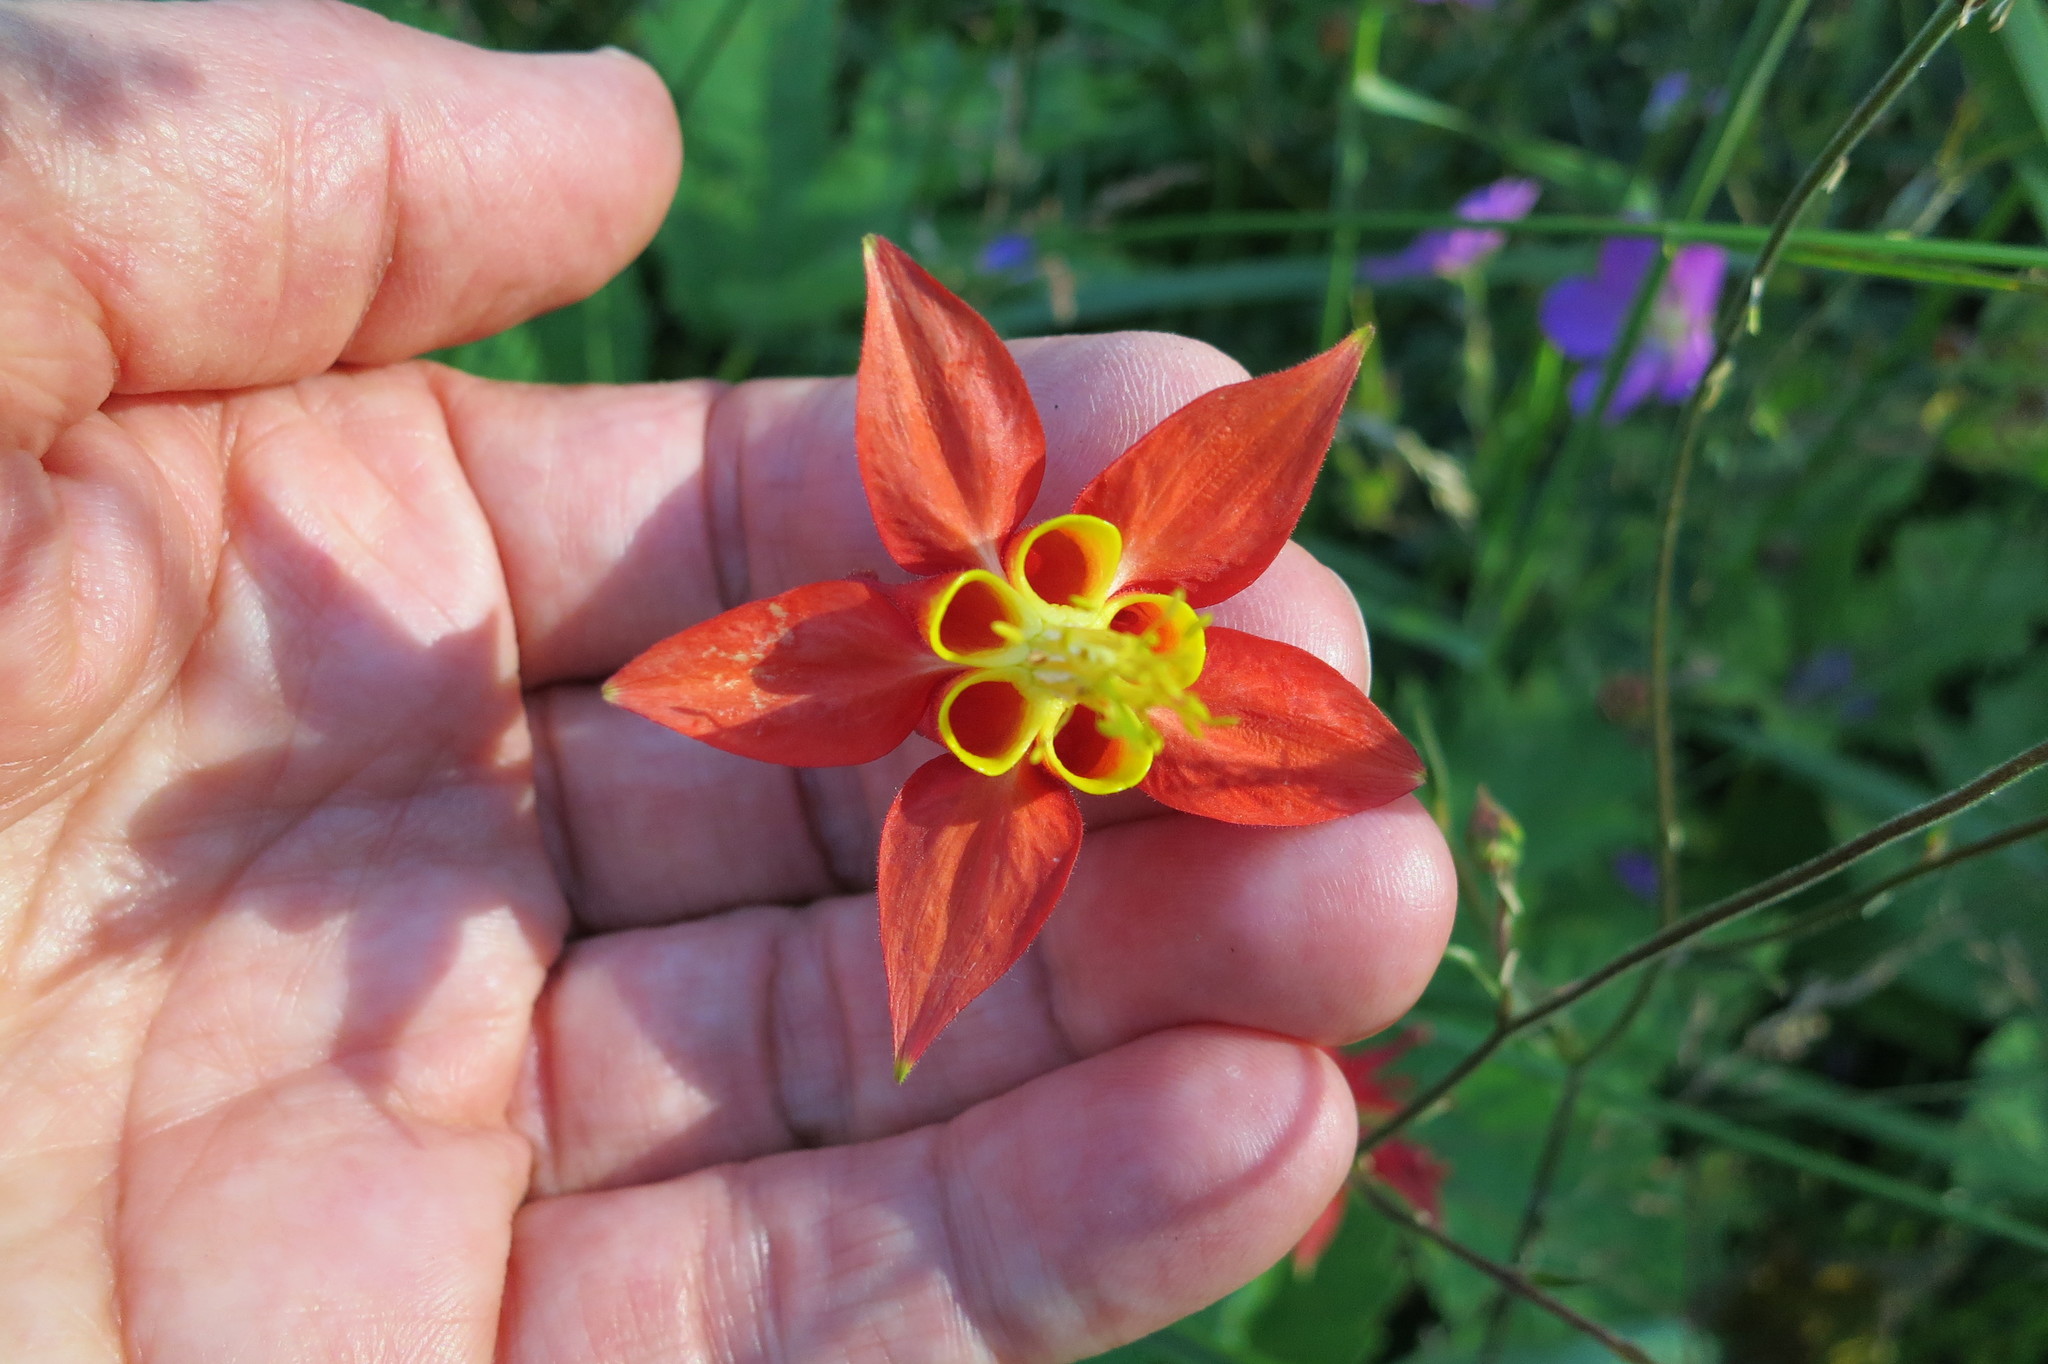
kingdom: Plantae
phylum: Tracheophyta
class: Magnoliopsida
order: Ranunculales
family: Ranunculaceae
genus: Aquilegia
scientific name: Aquilegia formosa
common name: Sitka columbine
